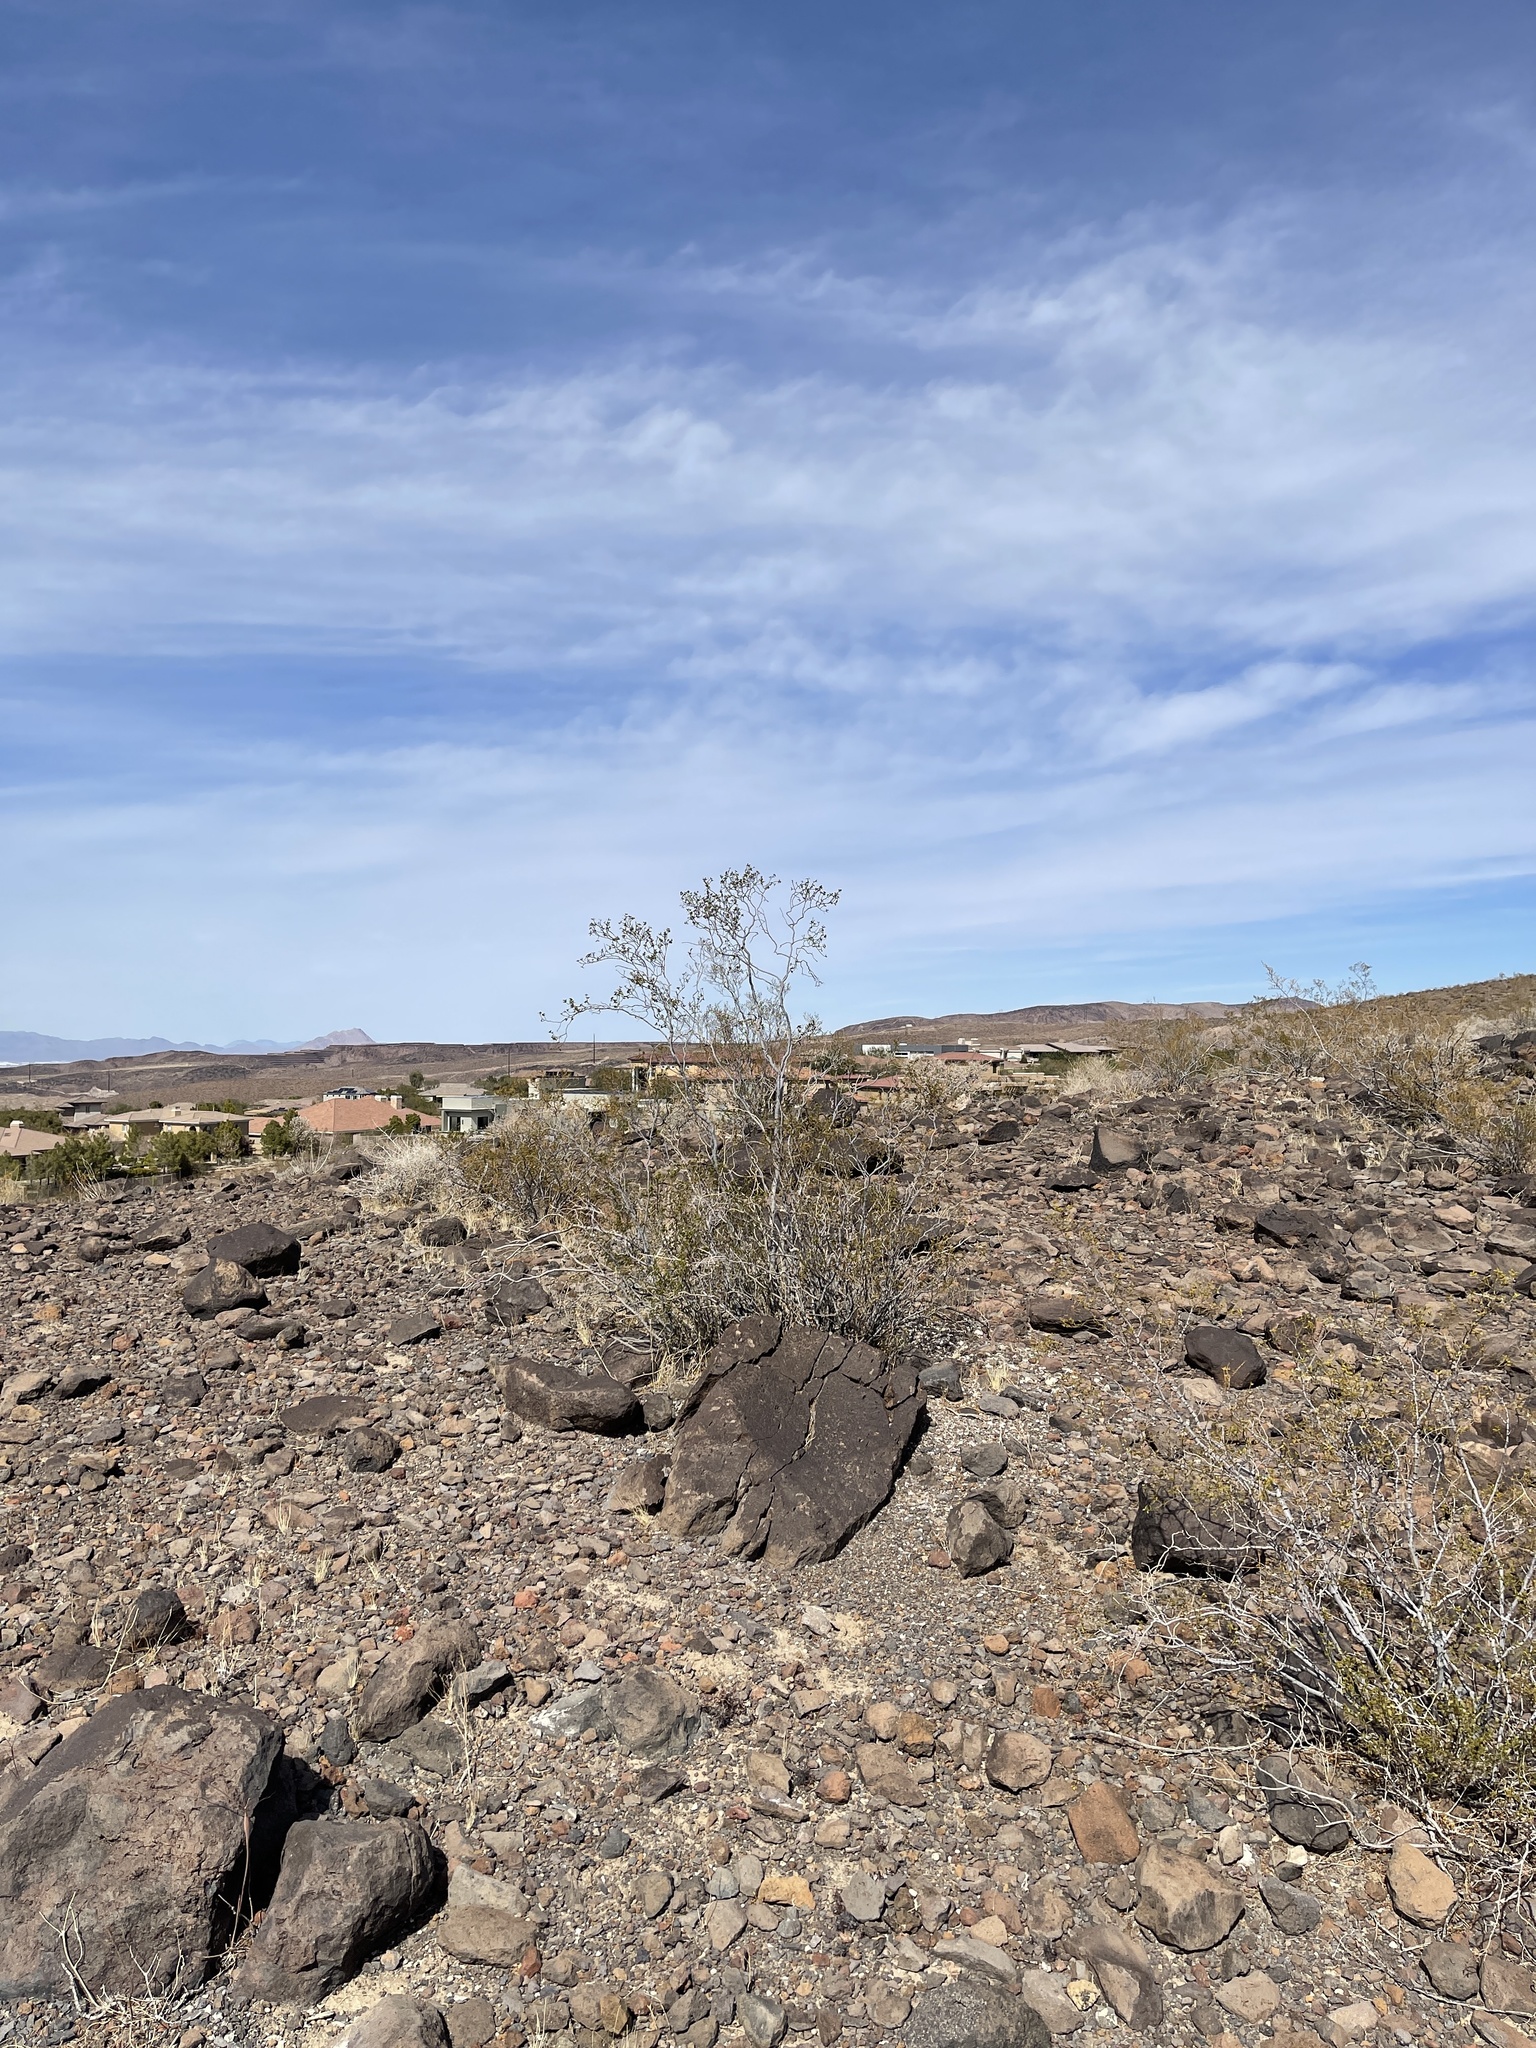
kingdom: Plantae
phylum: Tracheophyta
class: Magnoliopsida
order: Zygophyllales
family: Zygophyllaceae
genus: Larrea
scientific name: Larrea tridentata
